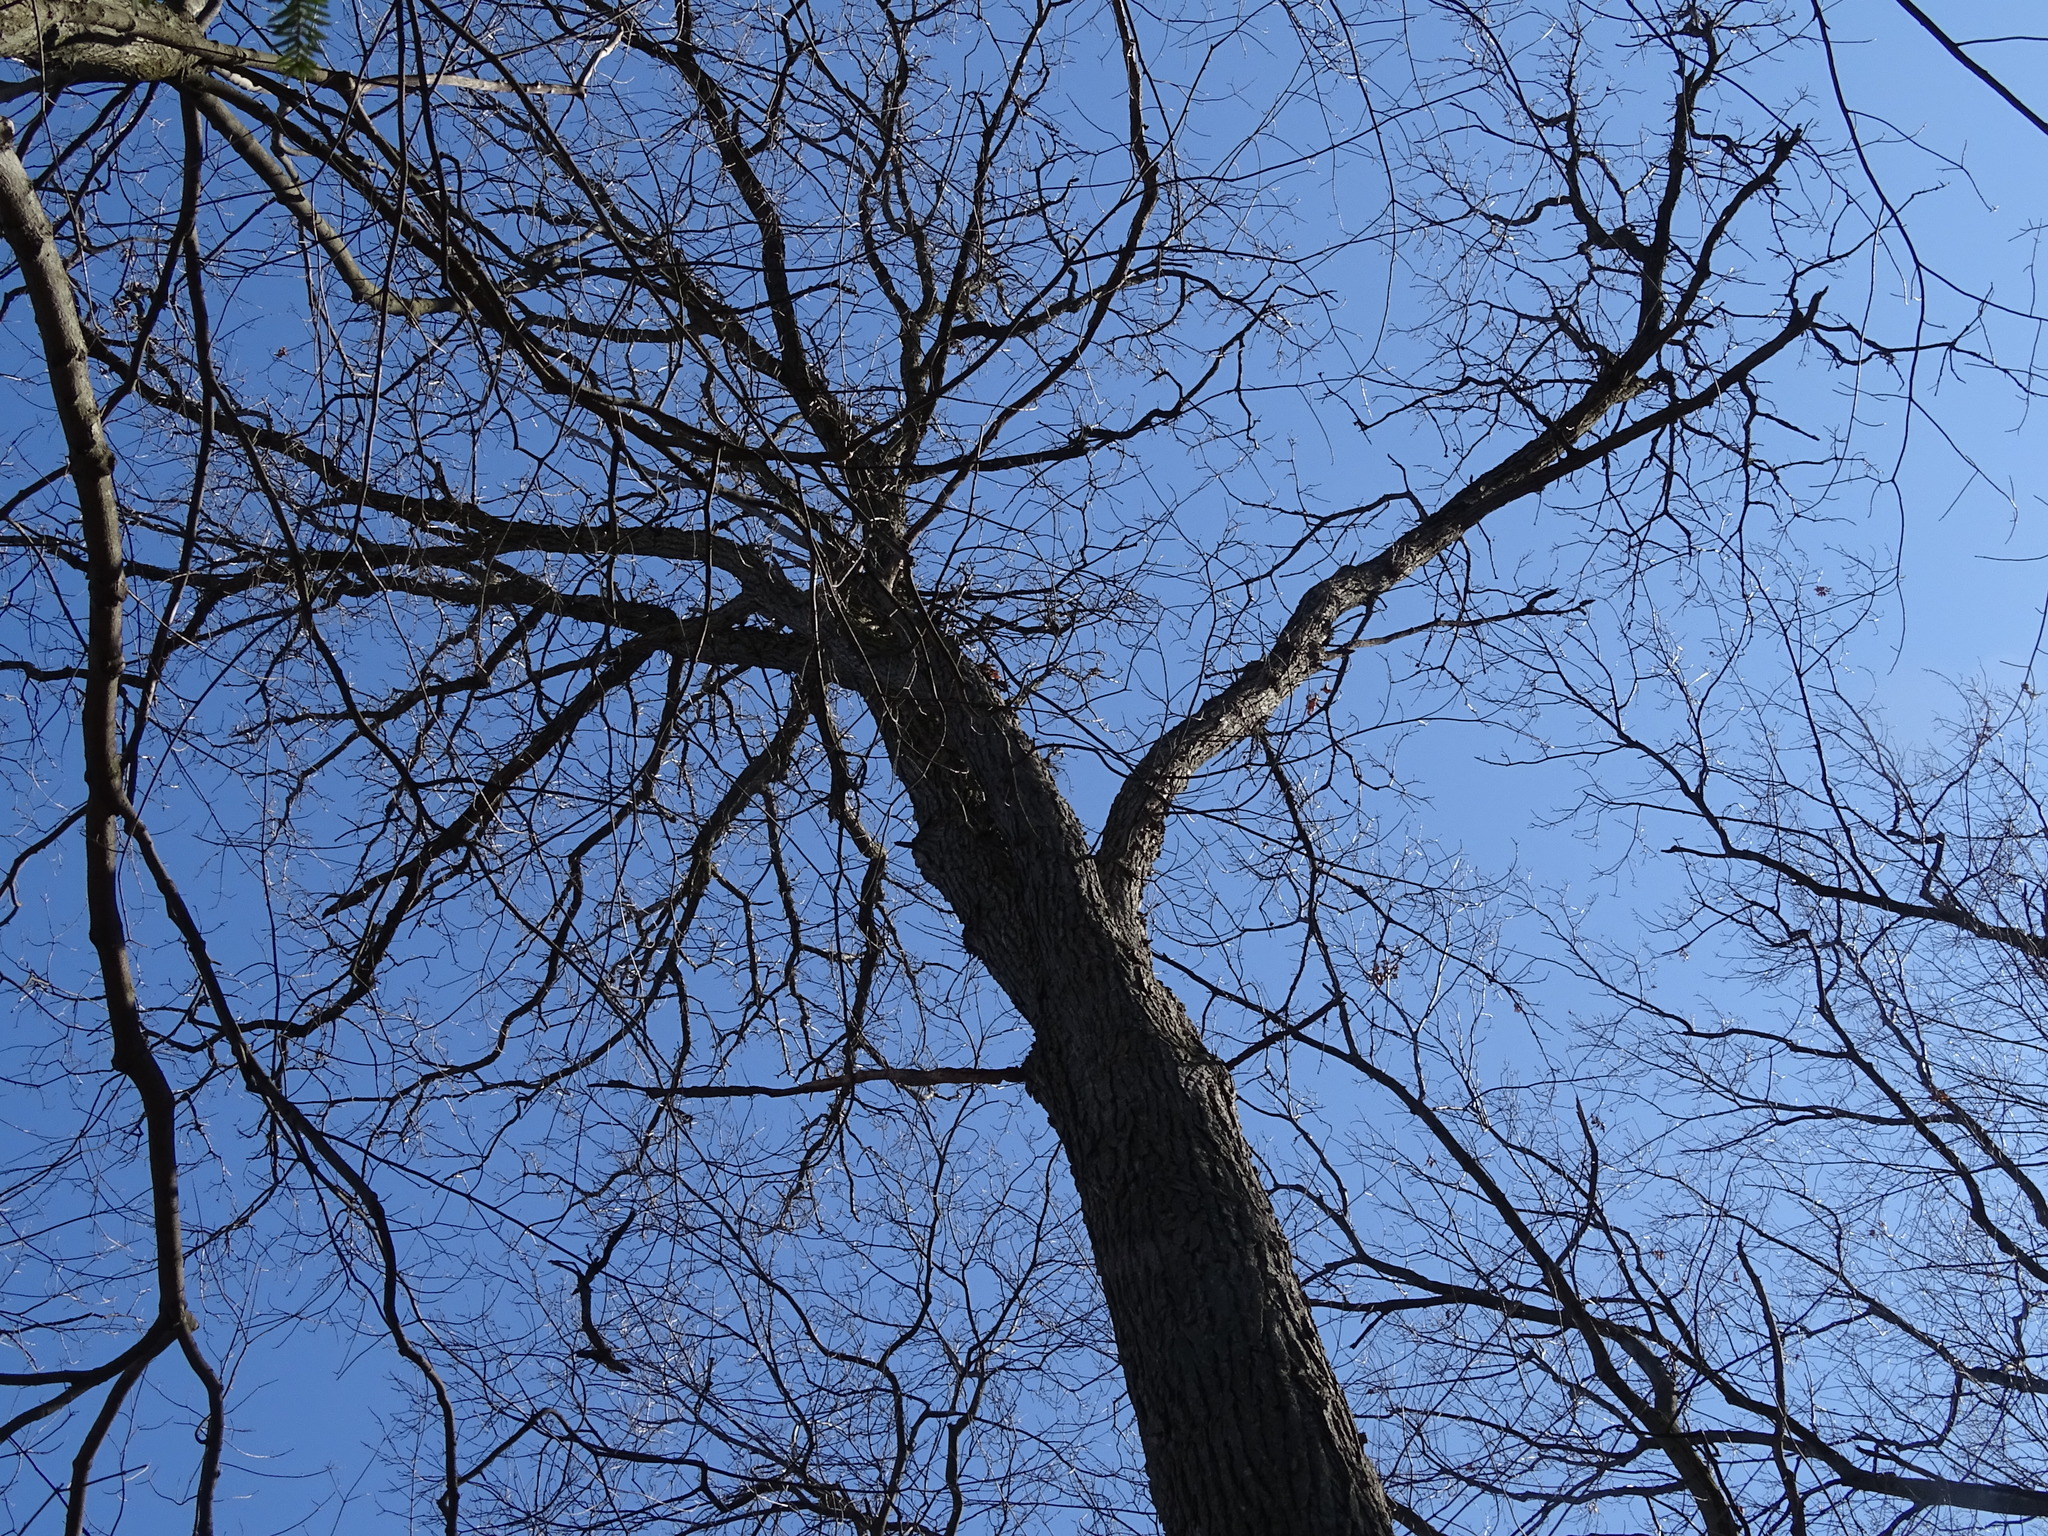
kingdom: Plantae
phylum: Tracheophyta
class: Magnoliopsida
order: Fagales
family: Fagaceae
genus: Quercus
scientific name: Quercus macrocarpa
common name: Bur oak
